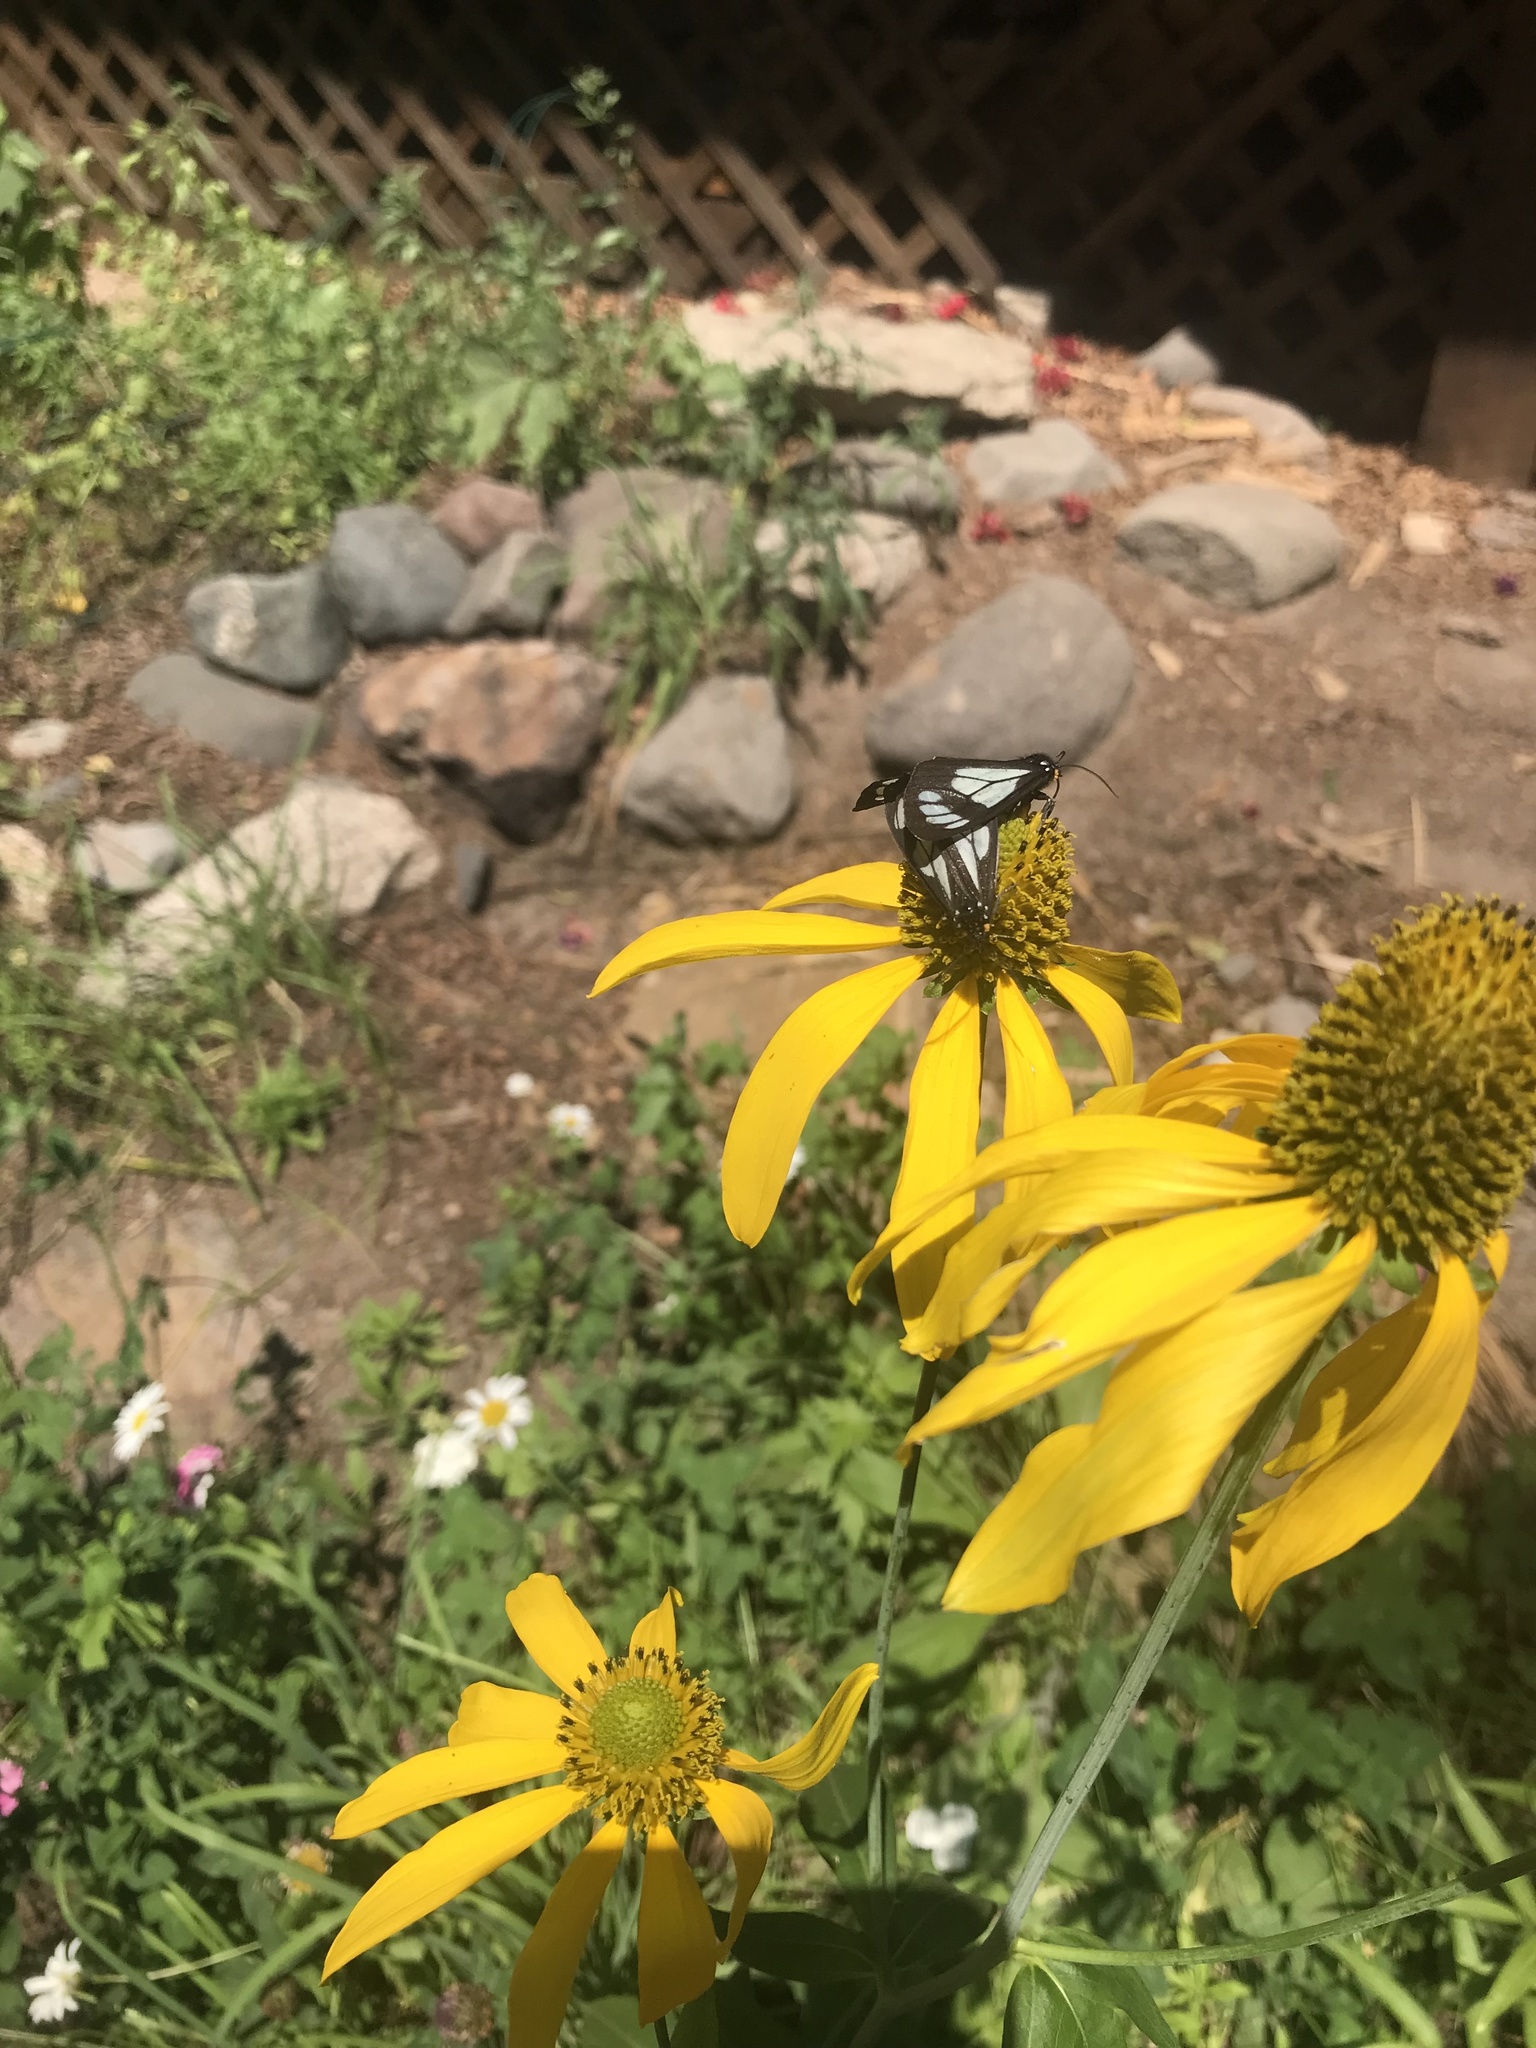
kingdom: Animalia
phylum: Arthropoda
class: Insecta
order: Lepidoptera
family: Erebidae
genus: Gnophaela
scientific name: Gnophaela vermiculata
